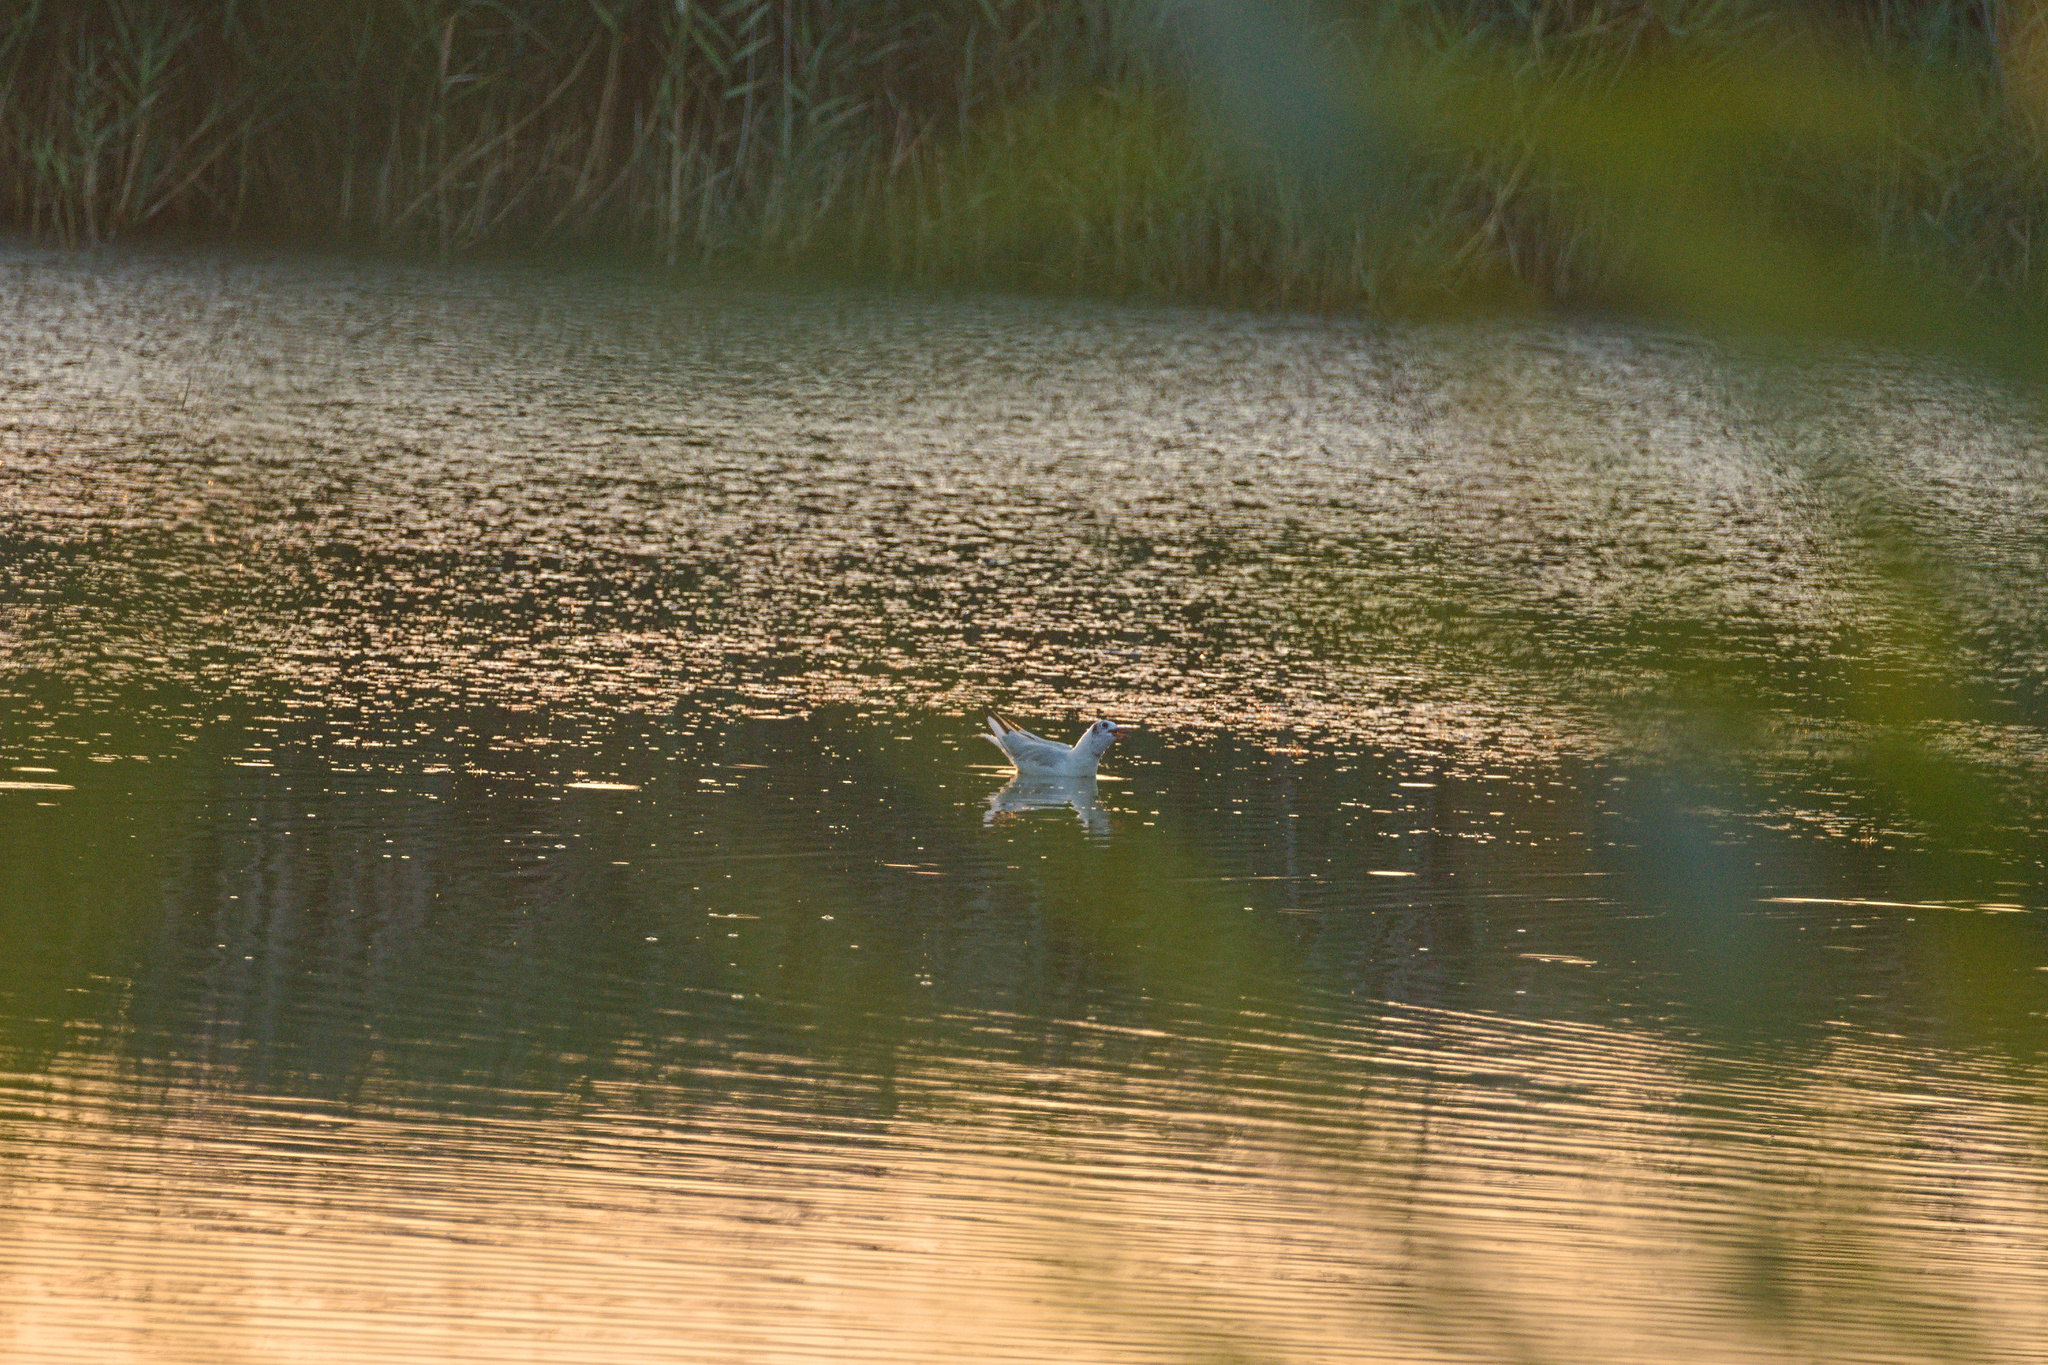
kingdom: Animalia
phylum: Chordata
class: Aves
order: Charadriiformes
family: Laridae
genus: Chroicocephalus
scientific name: Chroicocephalus ridibundus
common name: Black-headed gull
